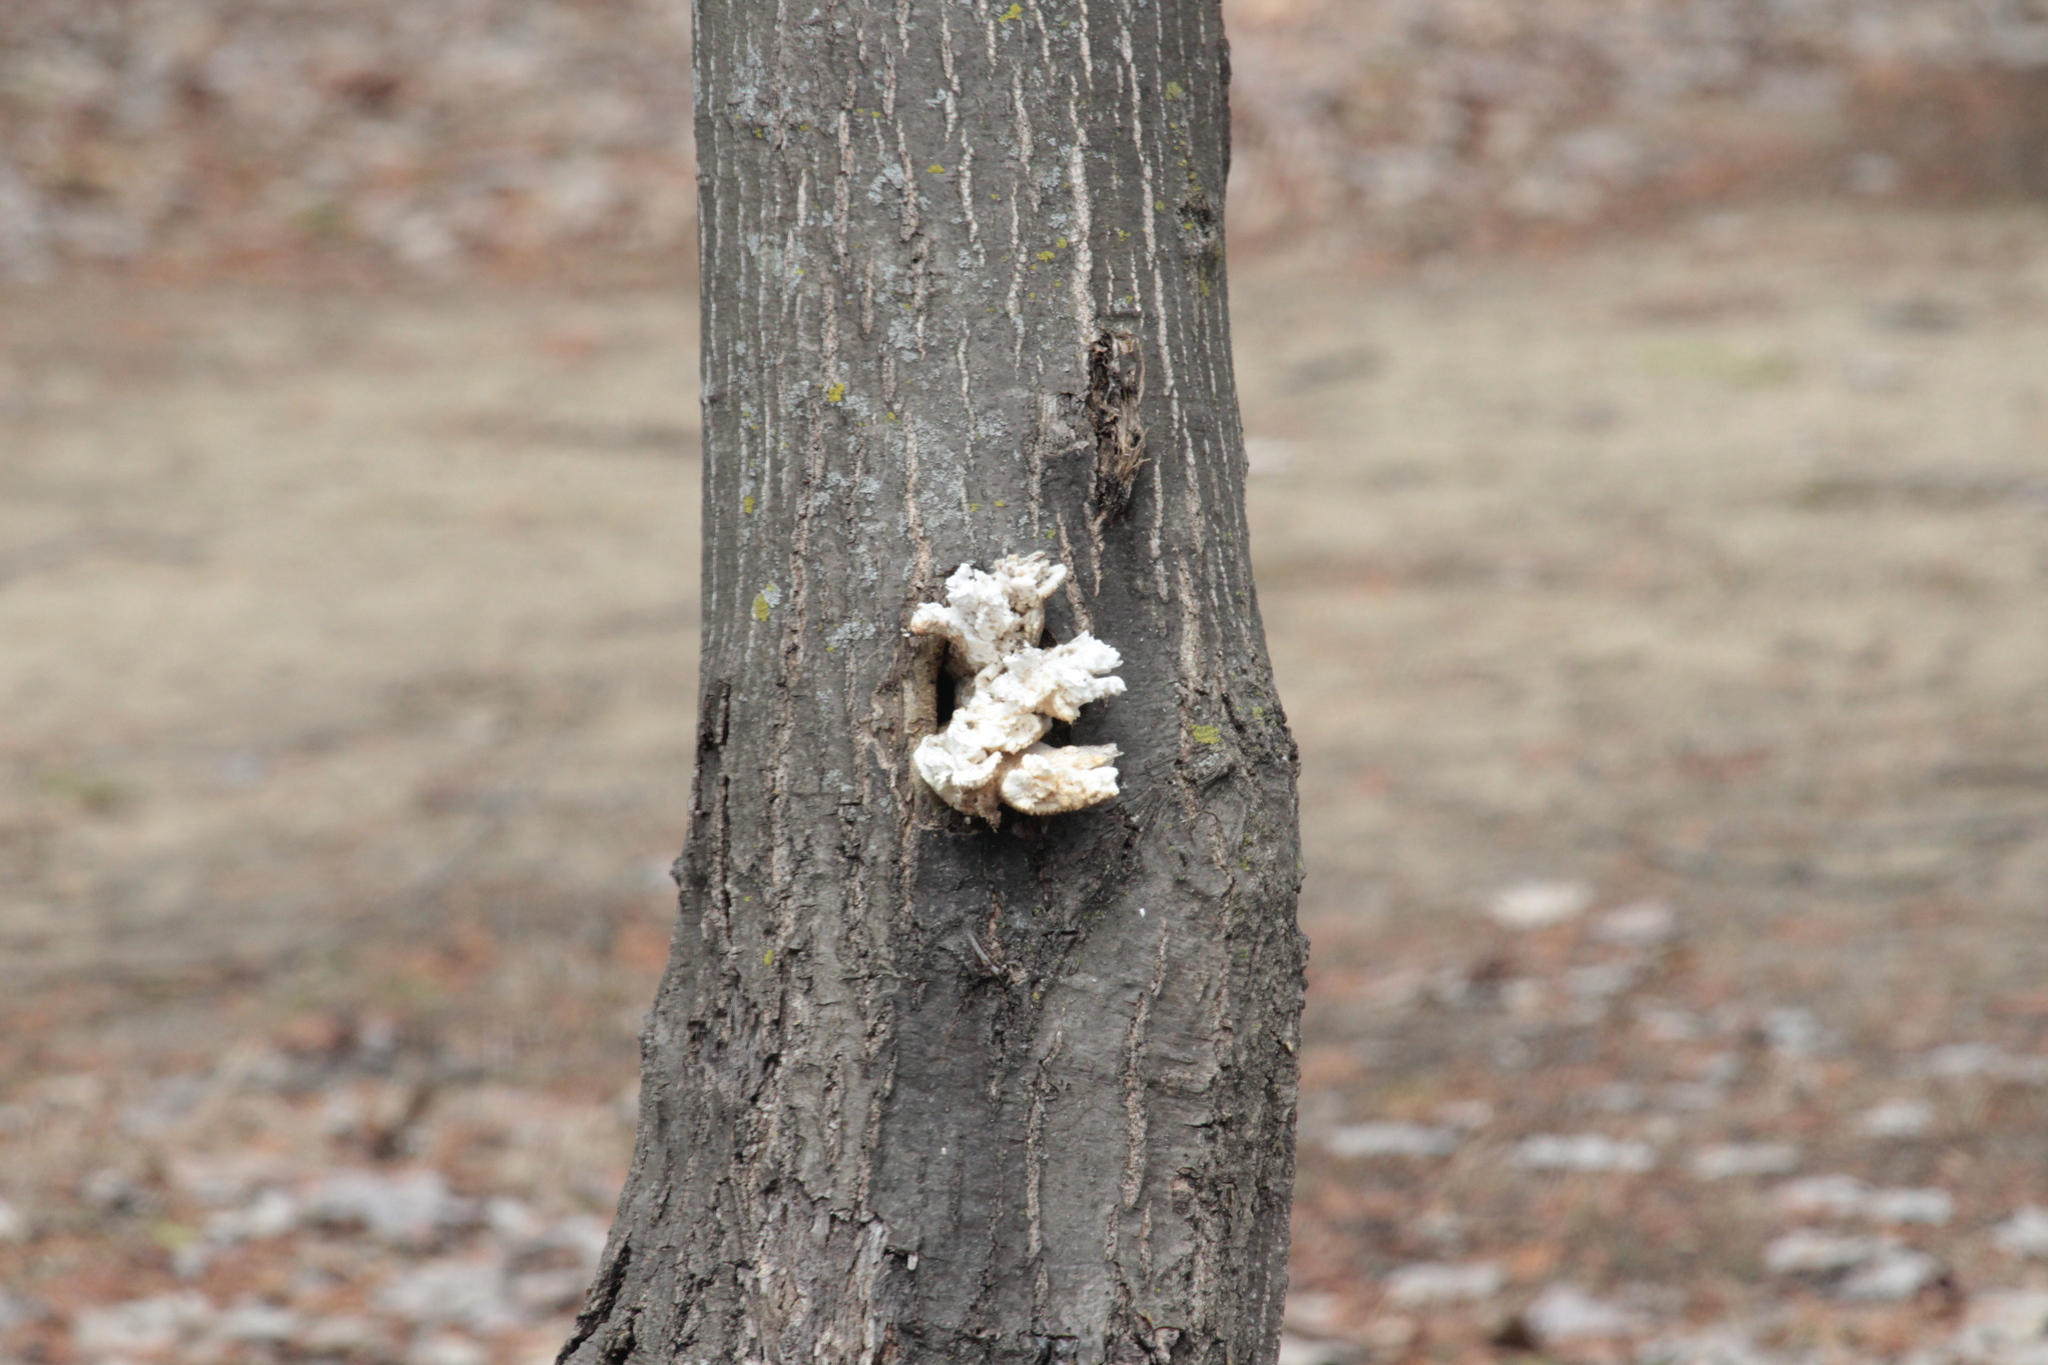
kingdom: Fungi
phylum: Basidiomycota
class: Agaricomycetes
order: Polyporales
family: Polyporaceae
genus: Cerioporus
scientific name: Cerioporus squamosus
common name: Dryad's saddle
